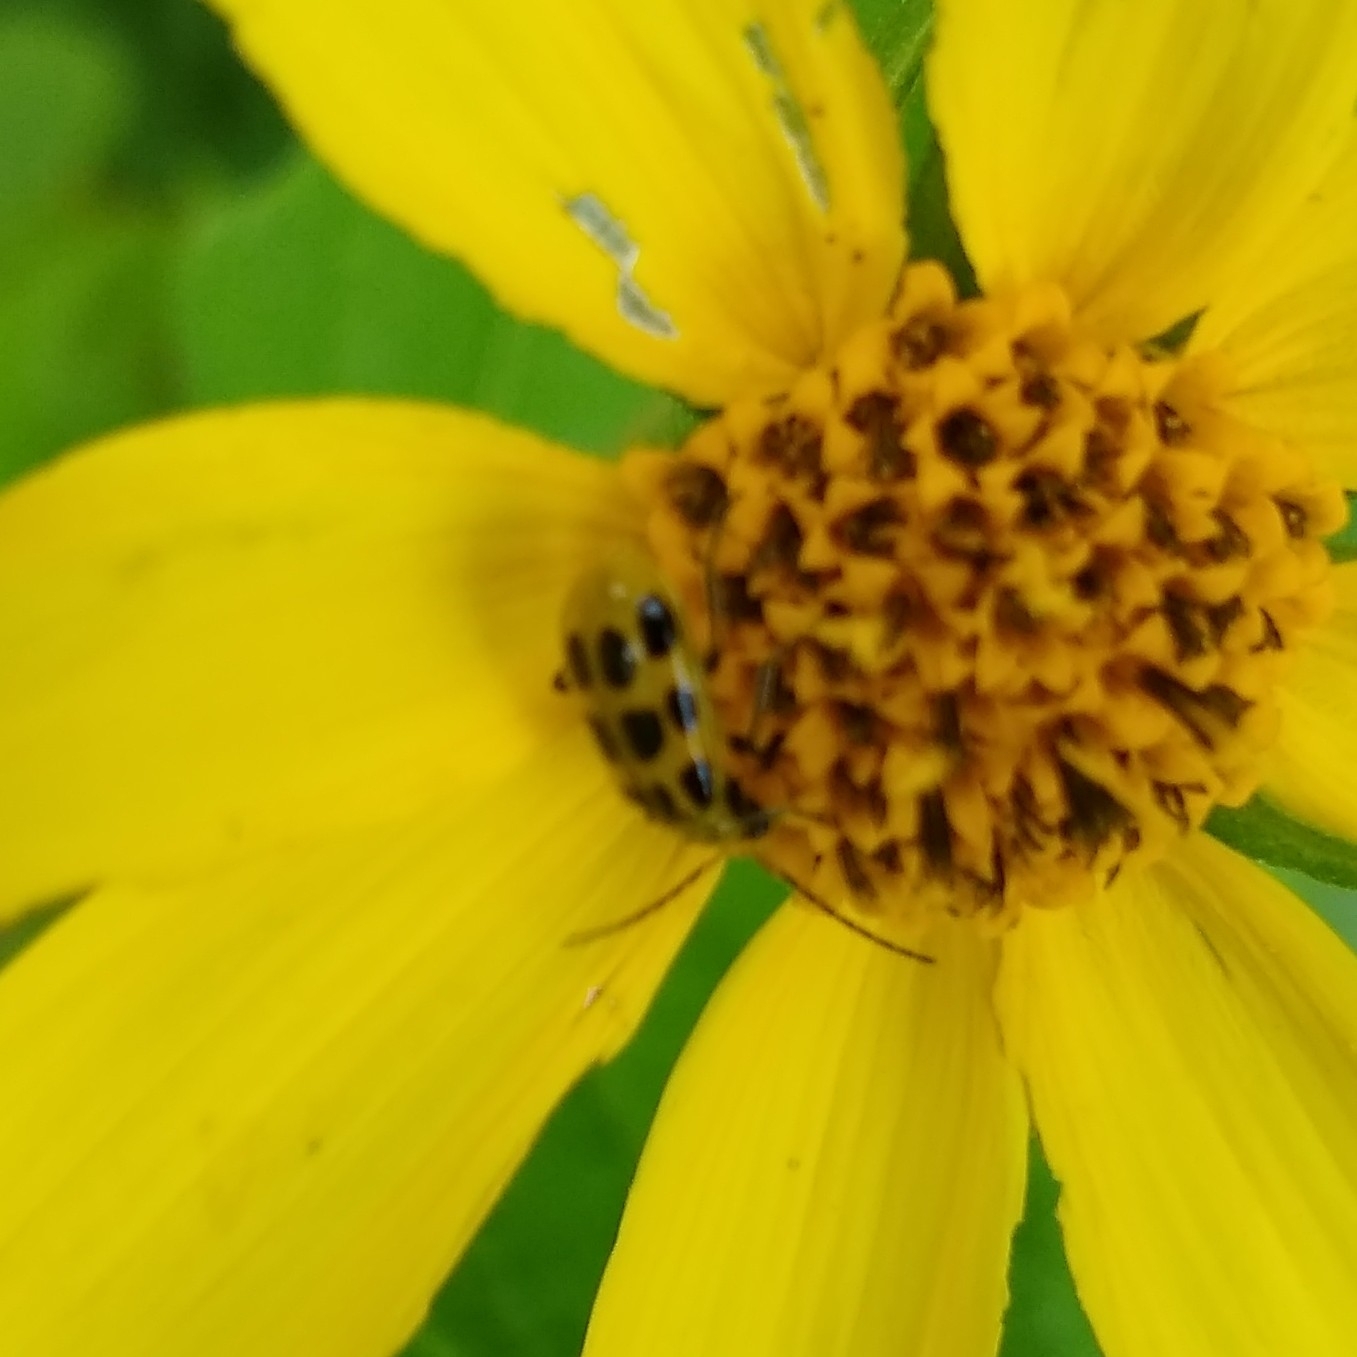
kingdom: Animalia
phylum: Arthropoda
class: Insecta
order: Coleoptera
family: Chrysomelidae
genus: Diabrotica
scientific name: Diabrotica undecimpunctata
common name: Spotted cucumber beetle
